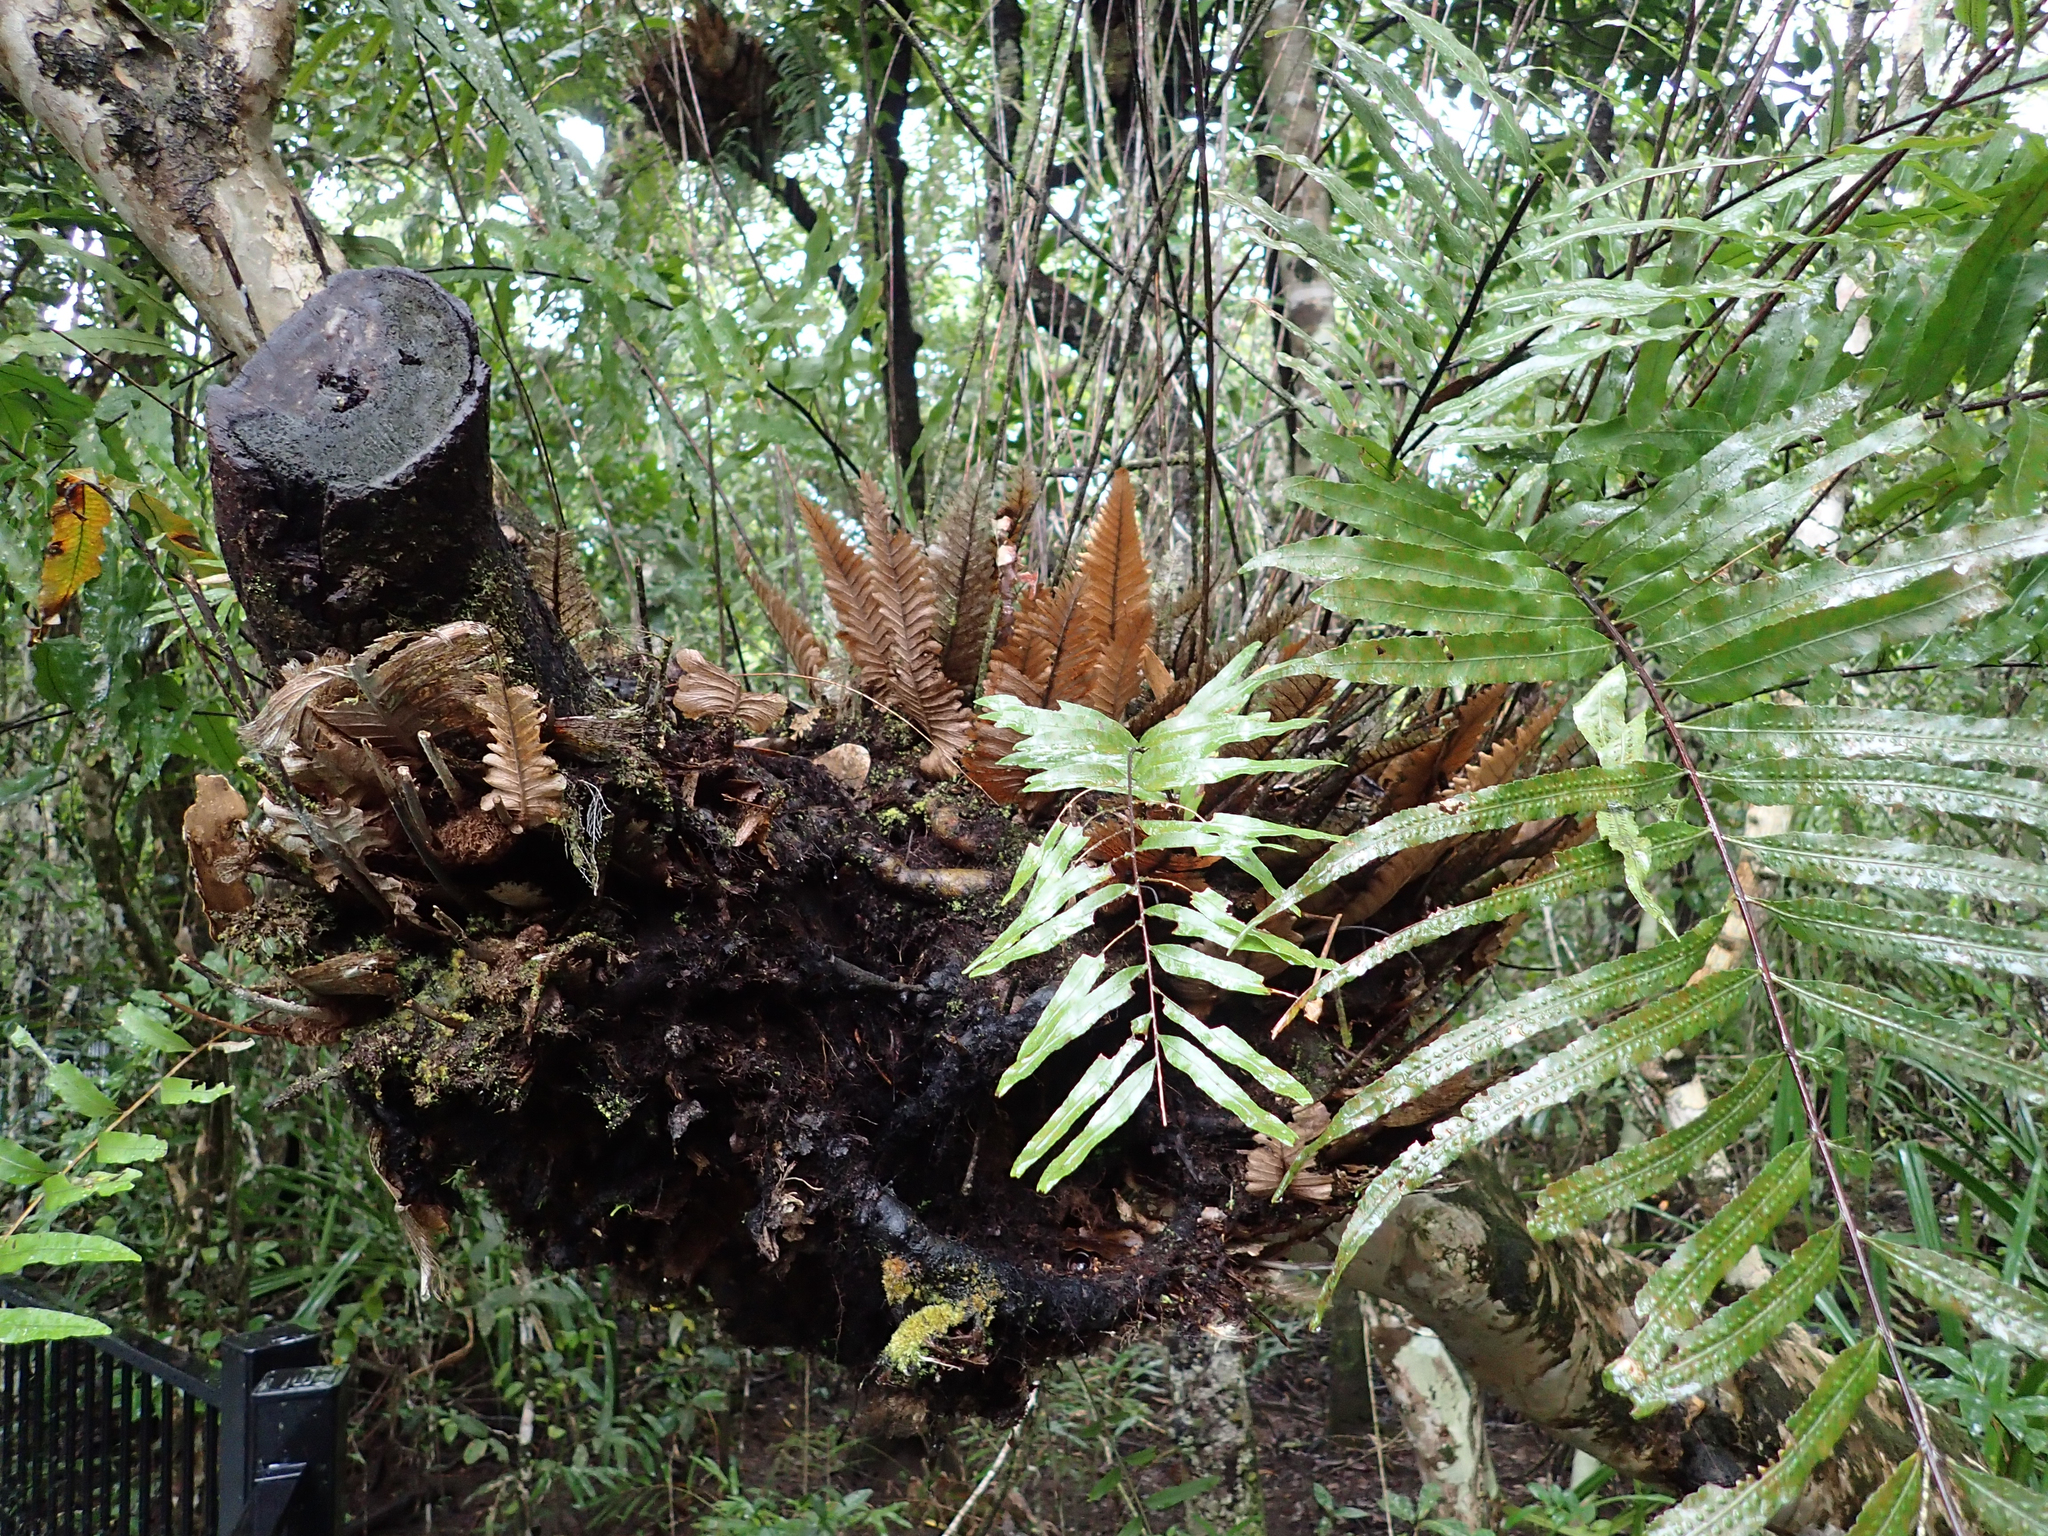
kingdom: Plantae
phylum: Tracheophyta
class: Polypodiopsida
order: Polypodiales
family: Polypodiaceae
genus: Drynaria
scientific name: Drynaria rigidula
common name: Basket fern
